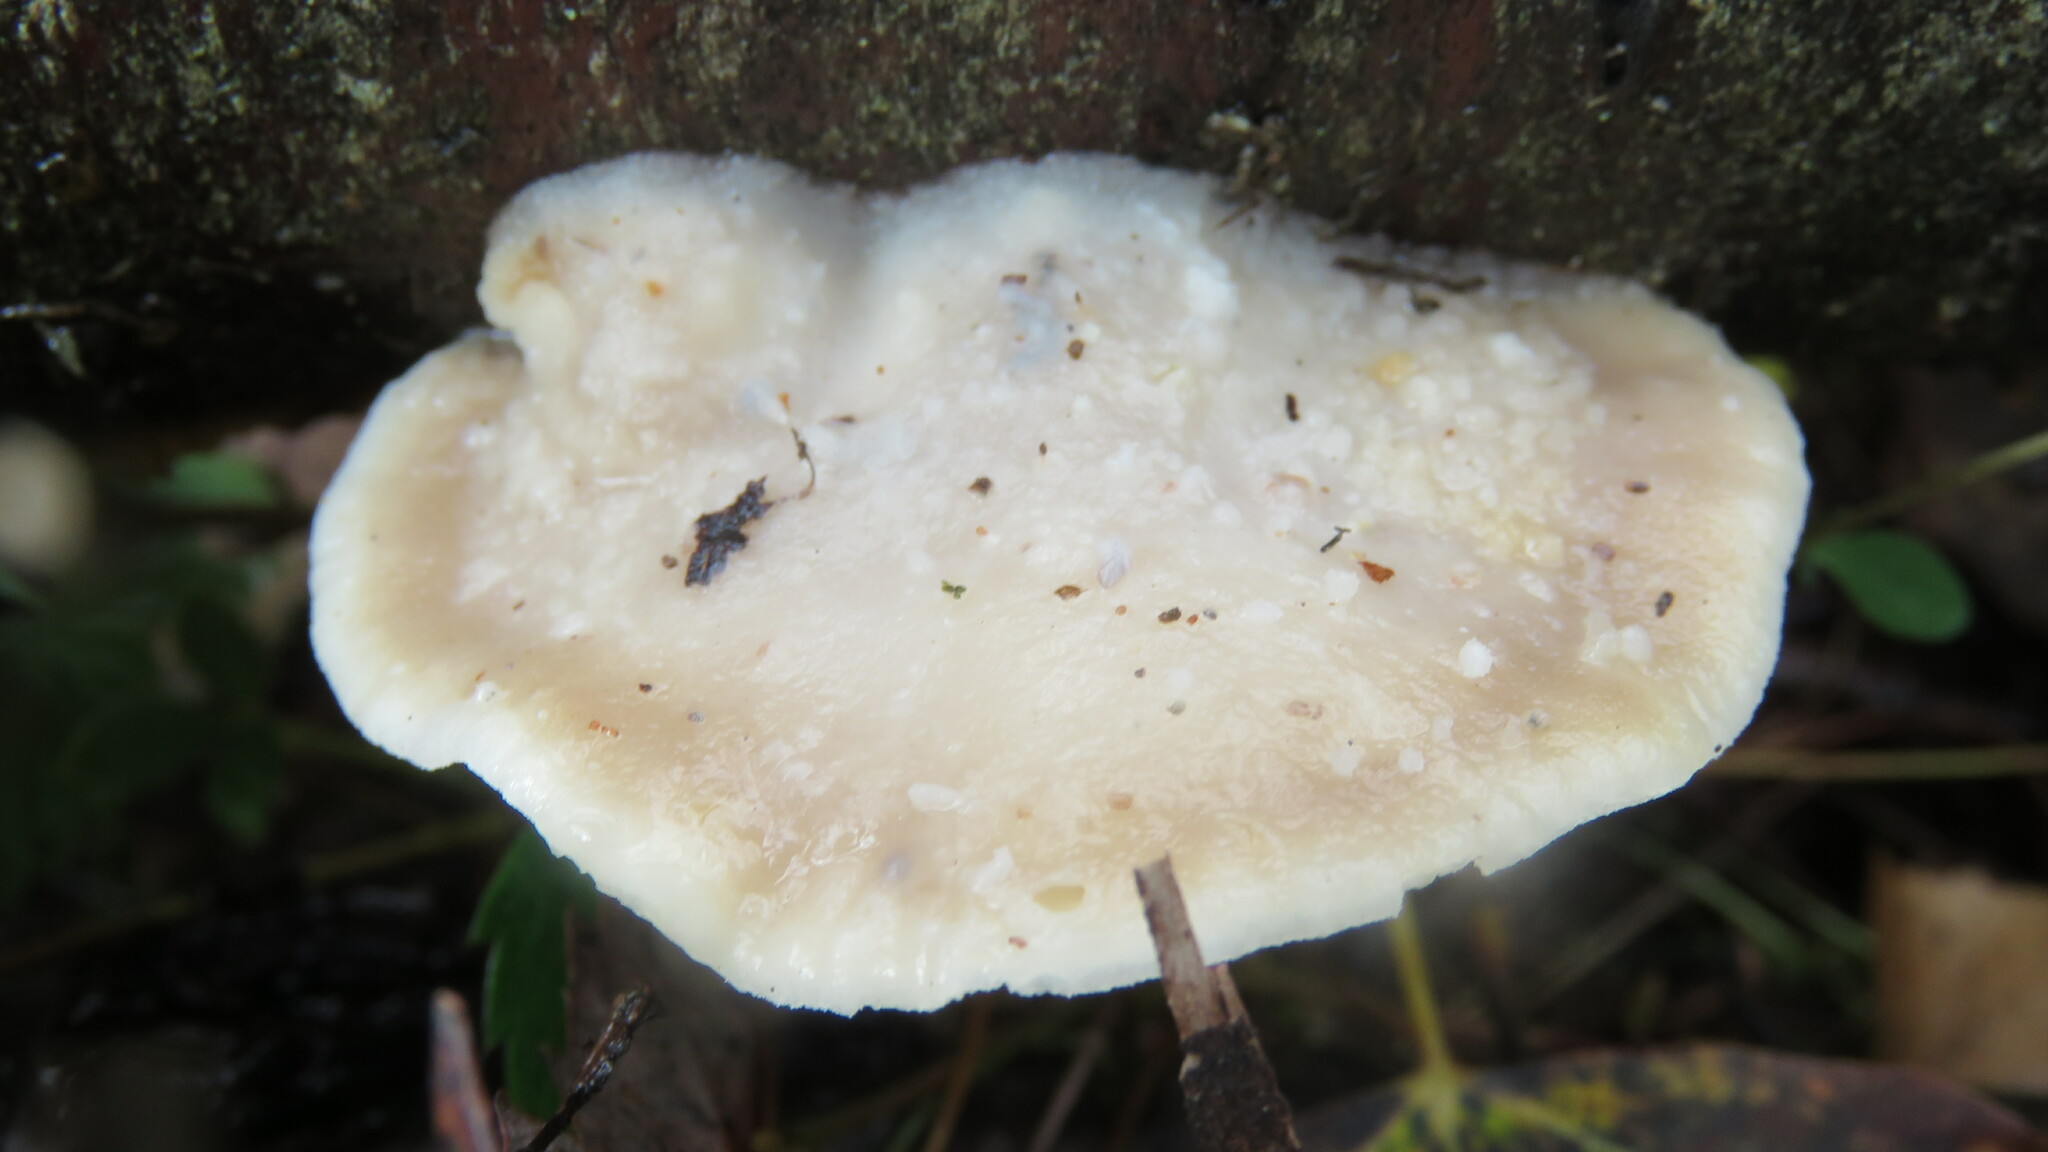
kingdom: Fungi
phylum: Basidiomycota
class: Agaricomycetes
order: Polyporales
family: Incrustoporiaceae
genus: Tyromyces
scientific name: Tyromyces chioneus
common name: White cheese polypore
